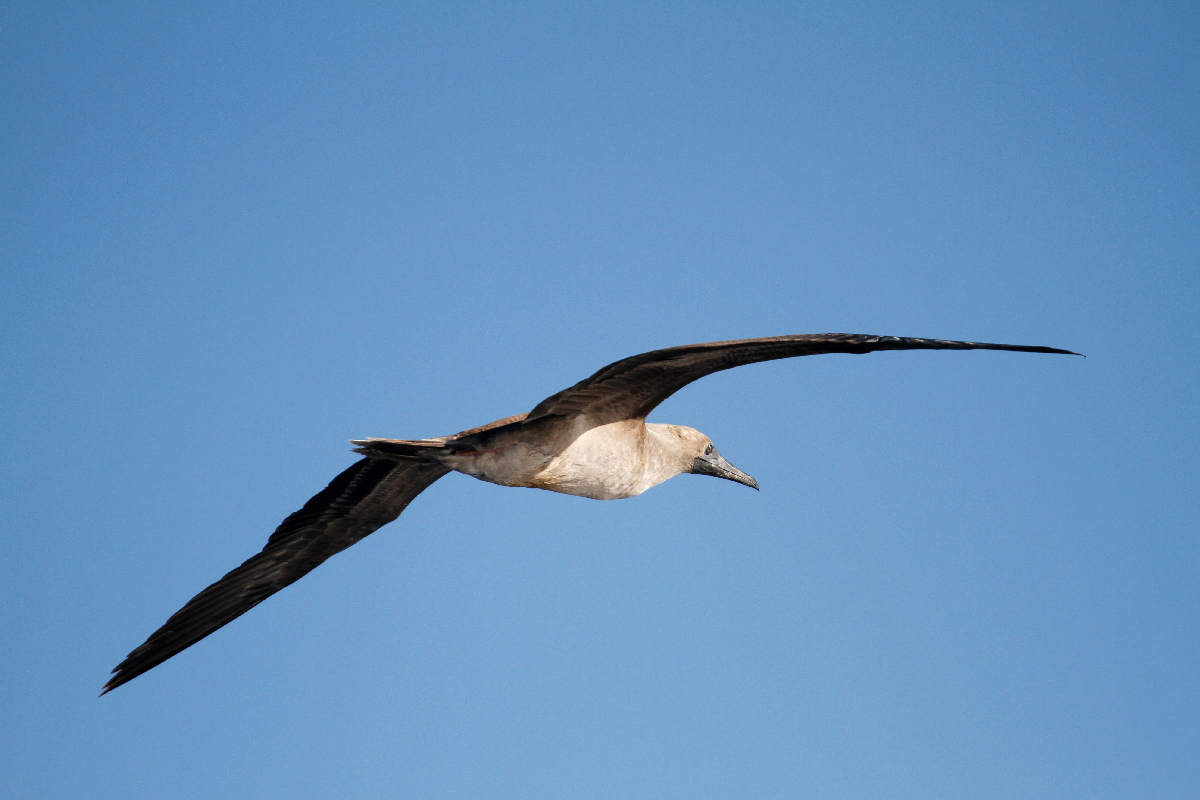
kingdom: Animalia
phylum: Chordata
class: Aves
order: Suliformes
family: Sulidae
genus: Sula
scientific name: Sula sula
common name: Red-footed booby
